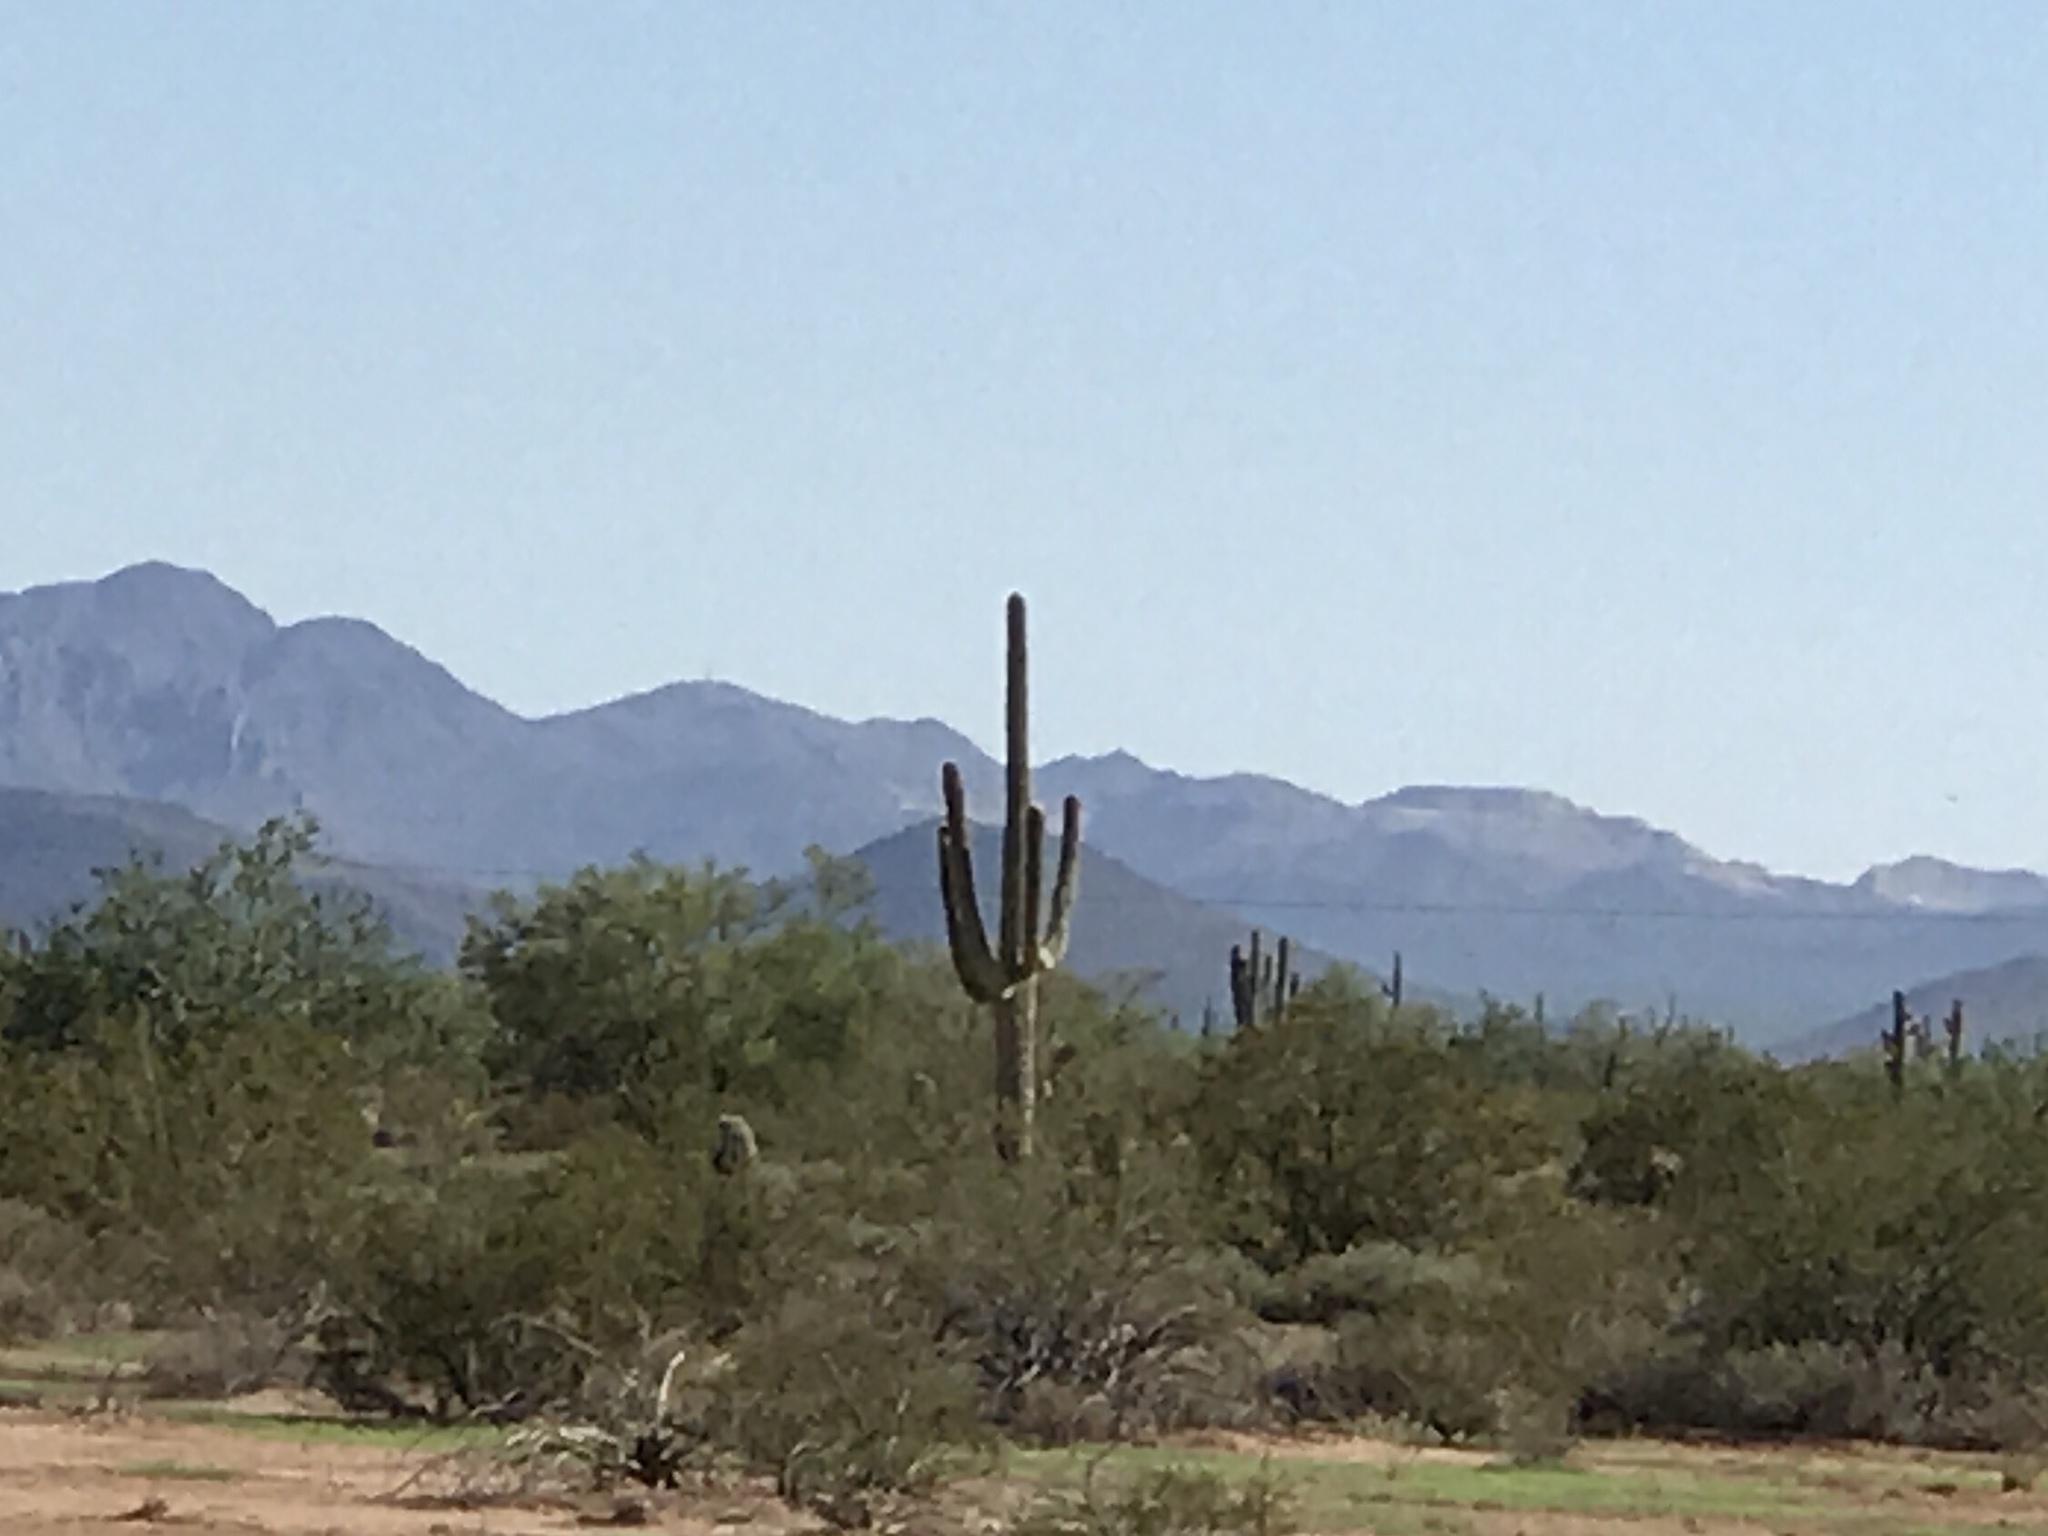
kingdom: Plantae
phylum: Tracheophyta
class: Magnoliopsida
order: Caryophyllales
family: Cactaceae
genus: Carnegiea
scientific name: Carnegiea gigantea
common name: Saguaro
